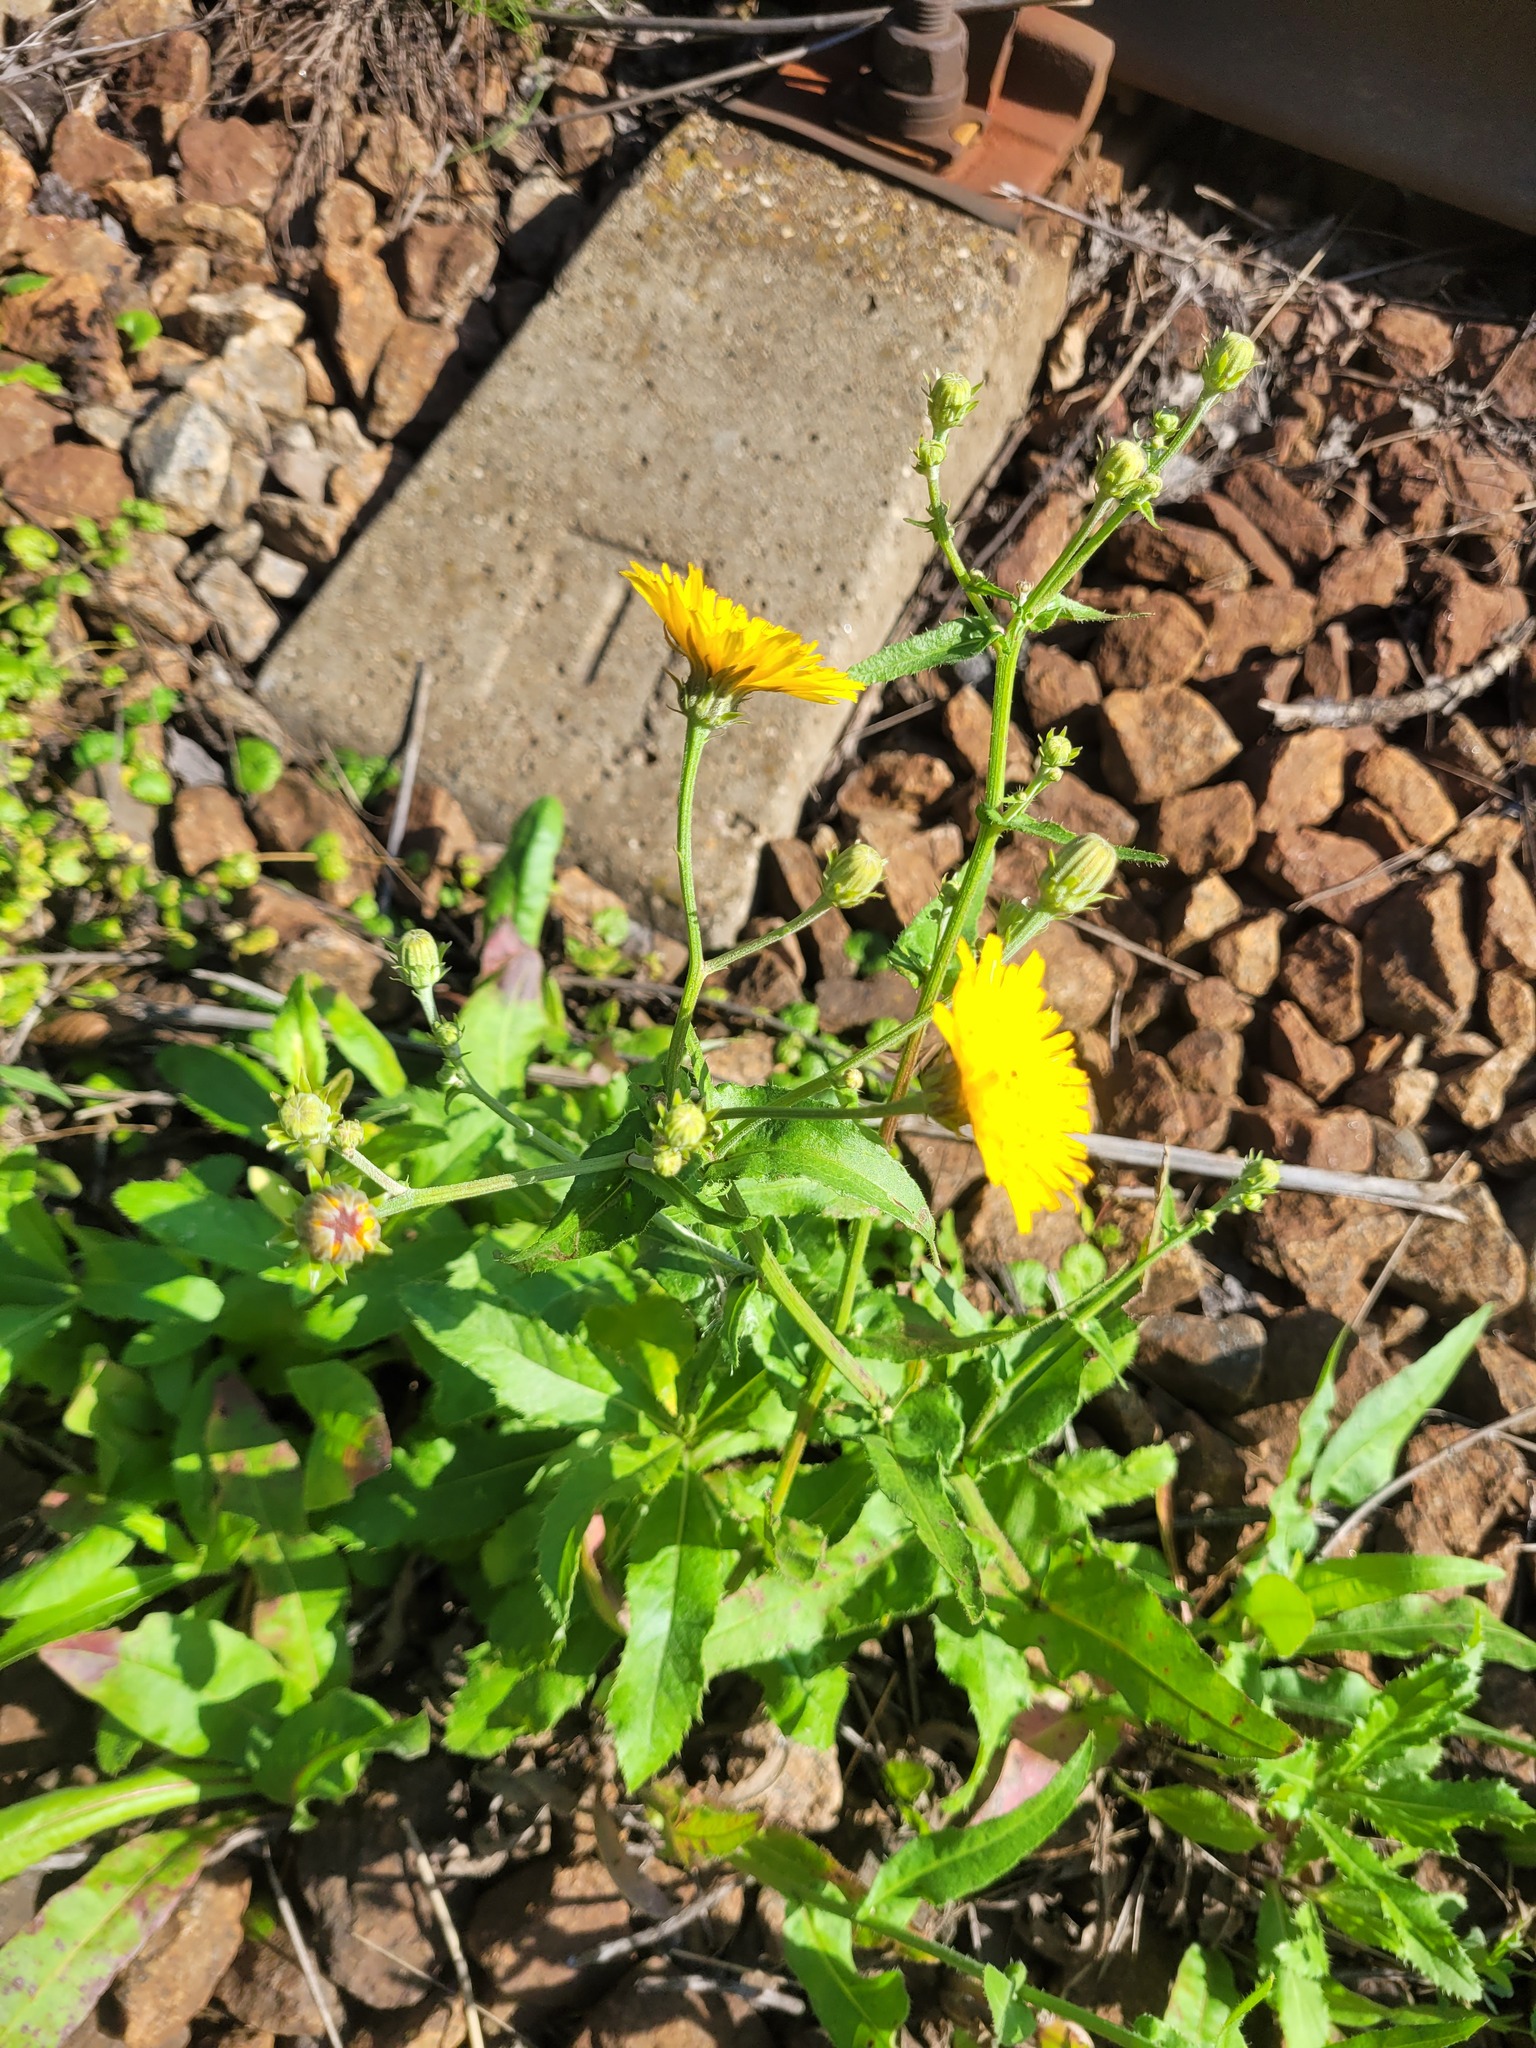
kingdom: Plantae
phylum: Tracheophyta
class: Magnoliopsida
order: Asterales
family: Asteraceae
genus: Picris
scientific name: Picris hieracioides
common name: Hawkweed oxtongue
